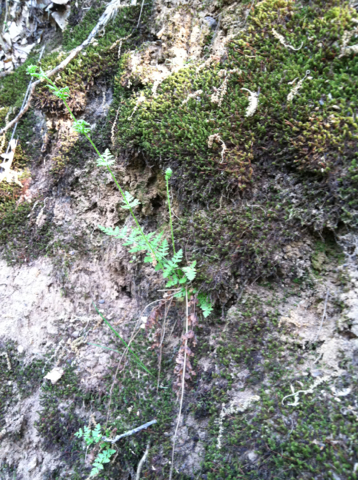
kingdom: Plantae
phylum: Tracheophyta
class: Polypodiopsida
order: Polypodiales
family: Woodsiaceae
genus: Physematium
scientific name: Physematium obtusum
